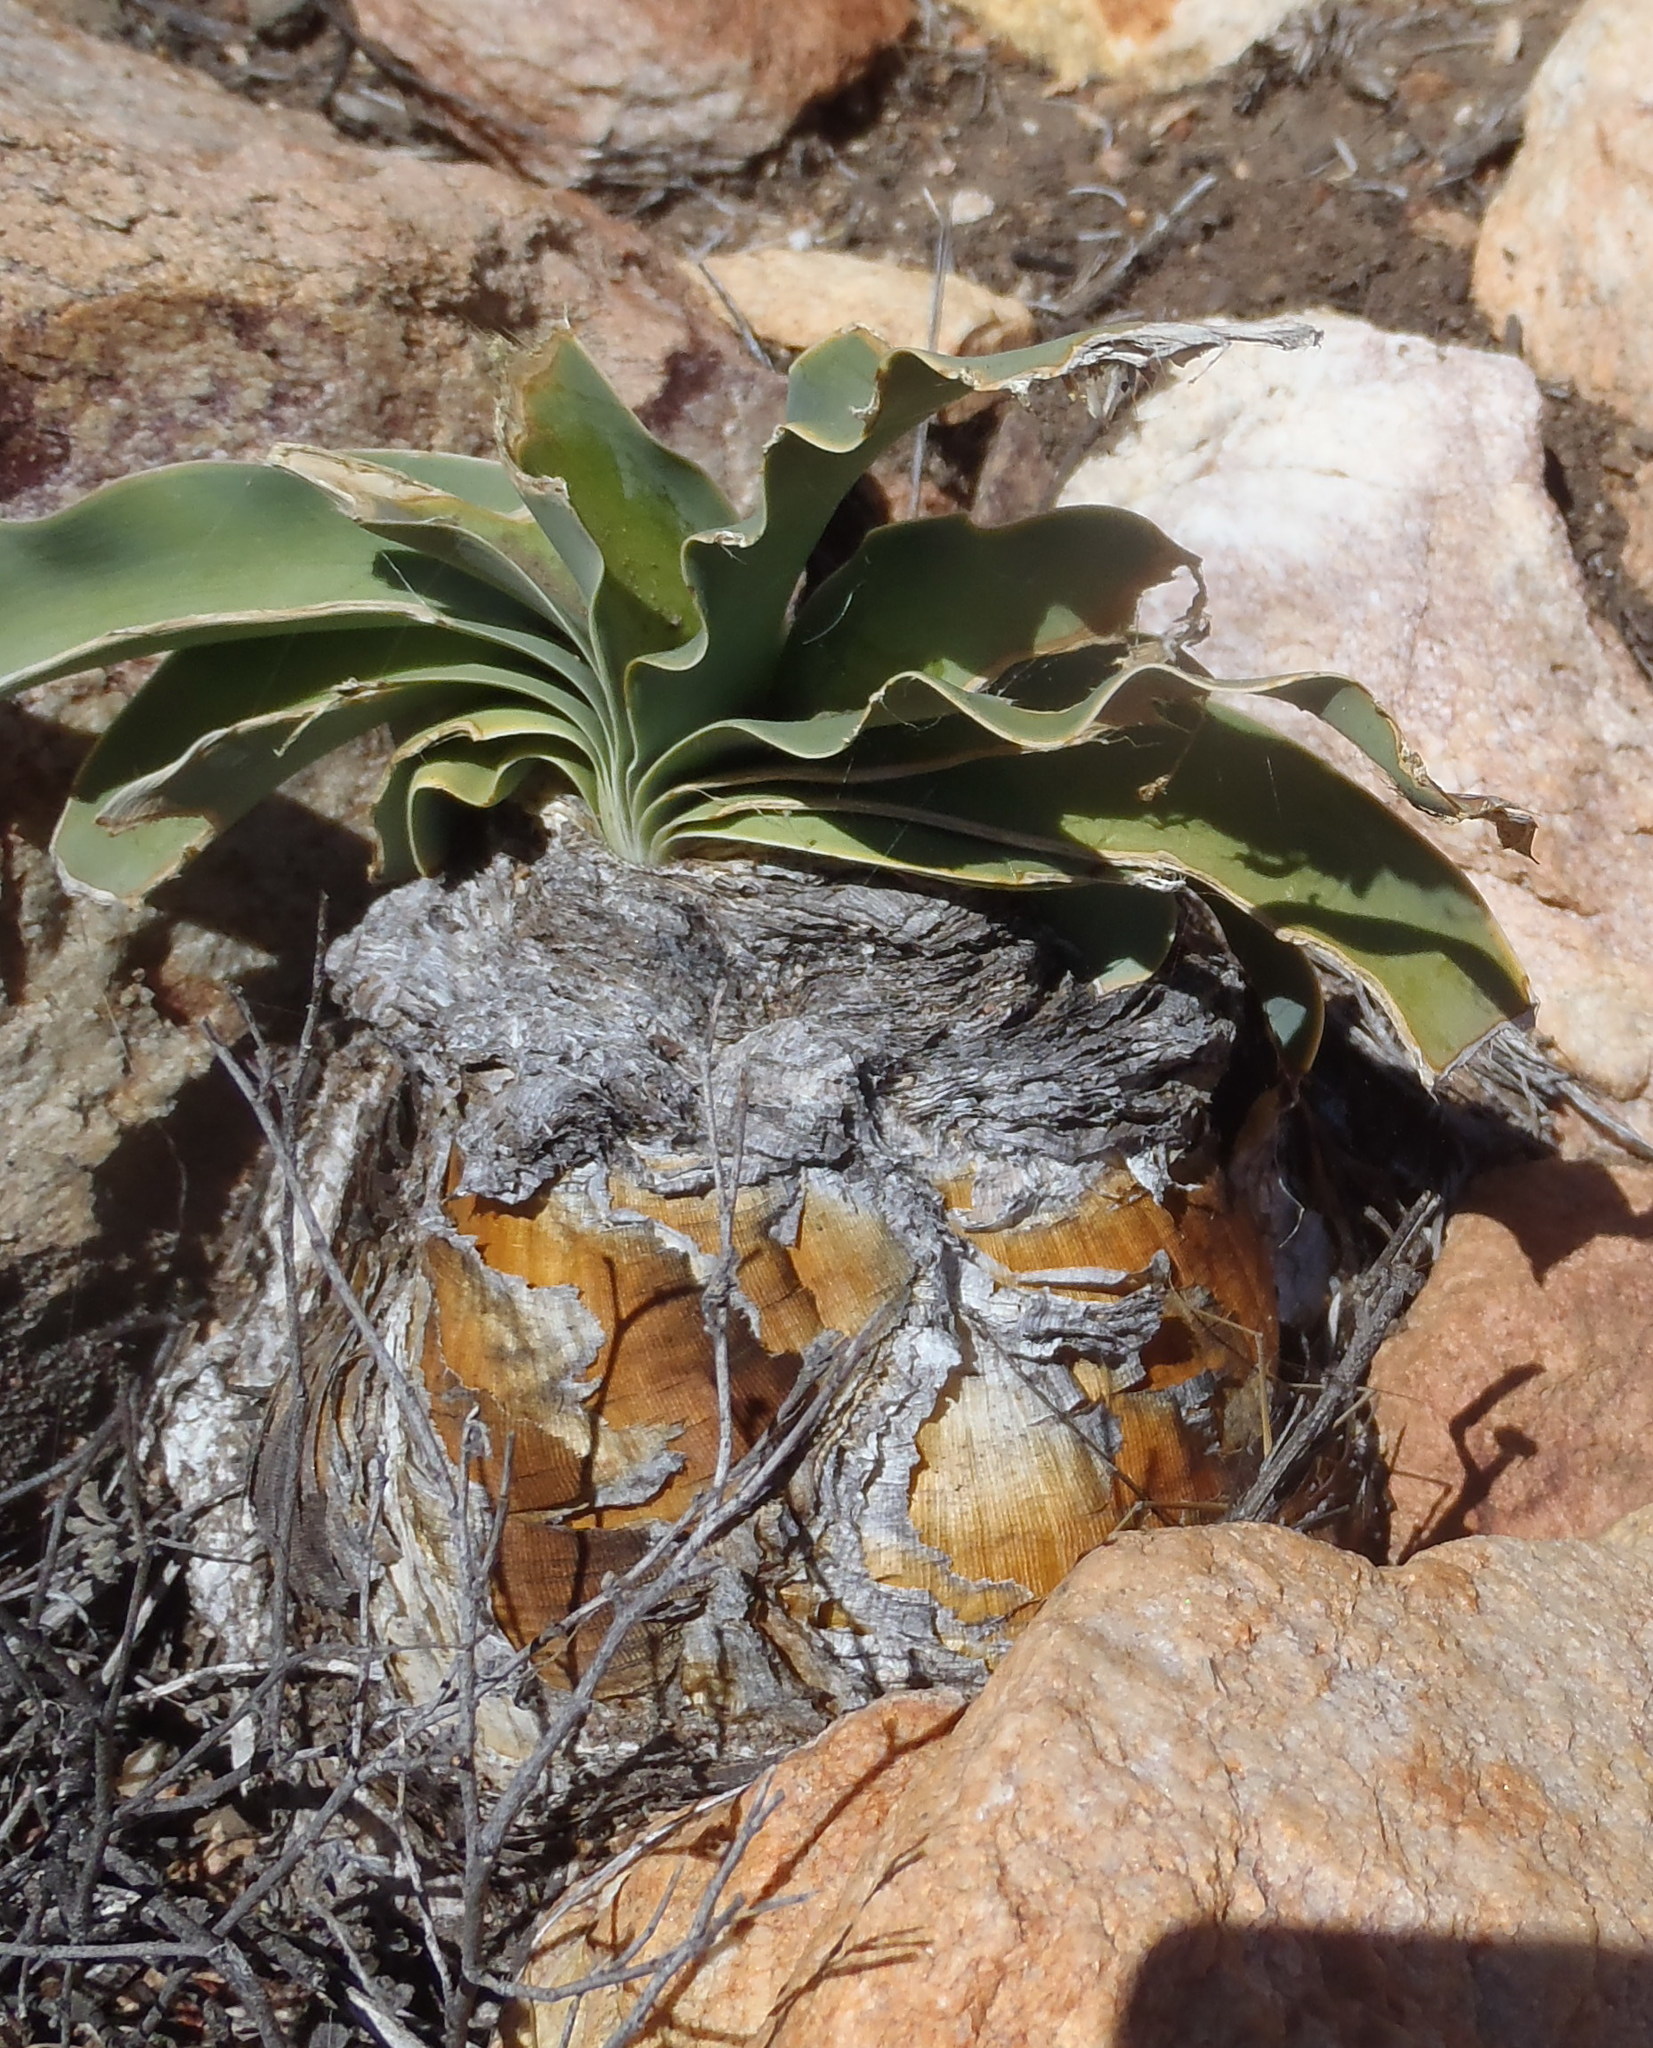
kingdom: Plantae
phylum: Tracheophyta
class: Liliopsida
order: Asparagales
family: Amaryllidaceae
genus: Boophone
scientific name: Boophone disticha
